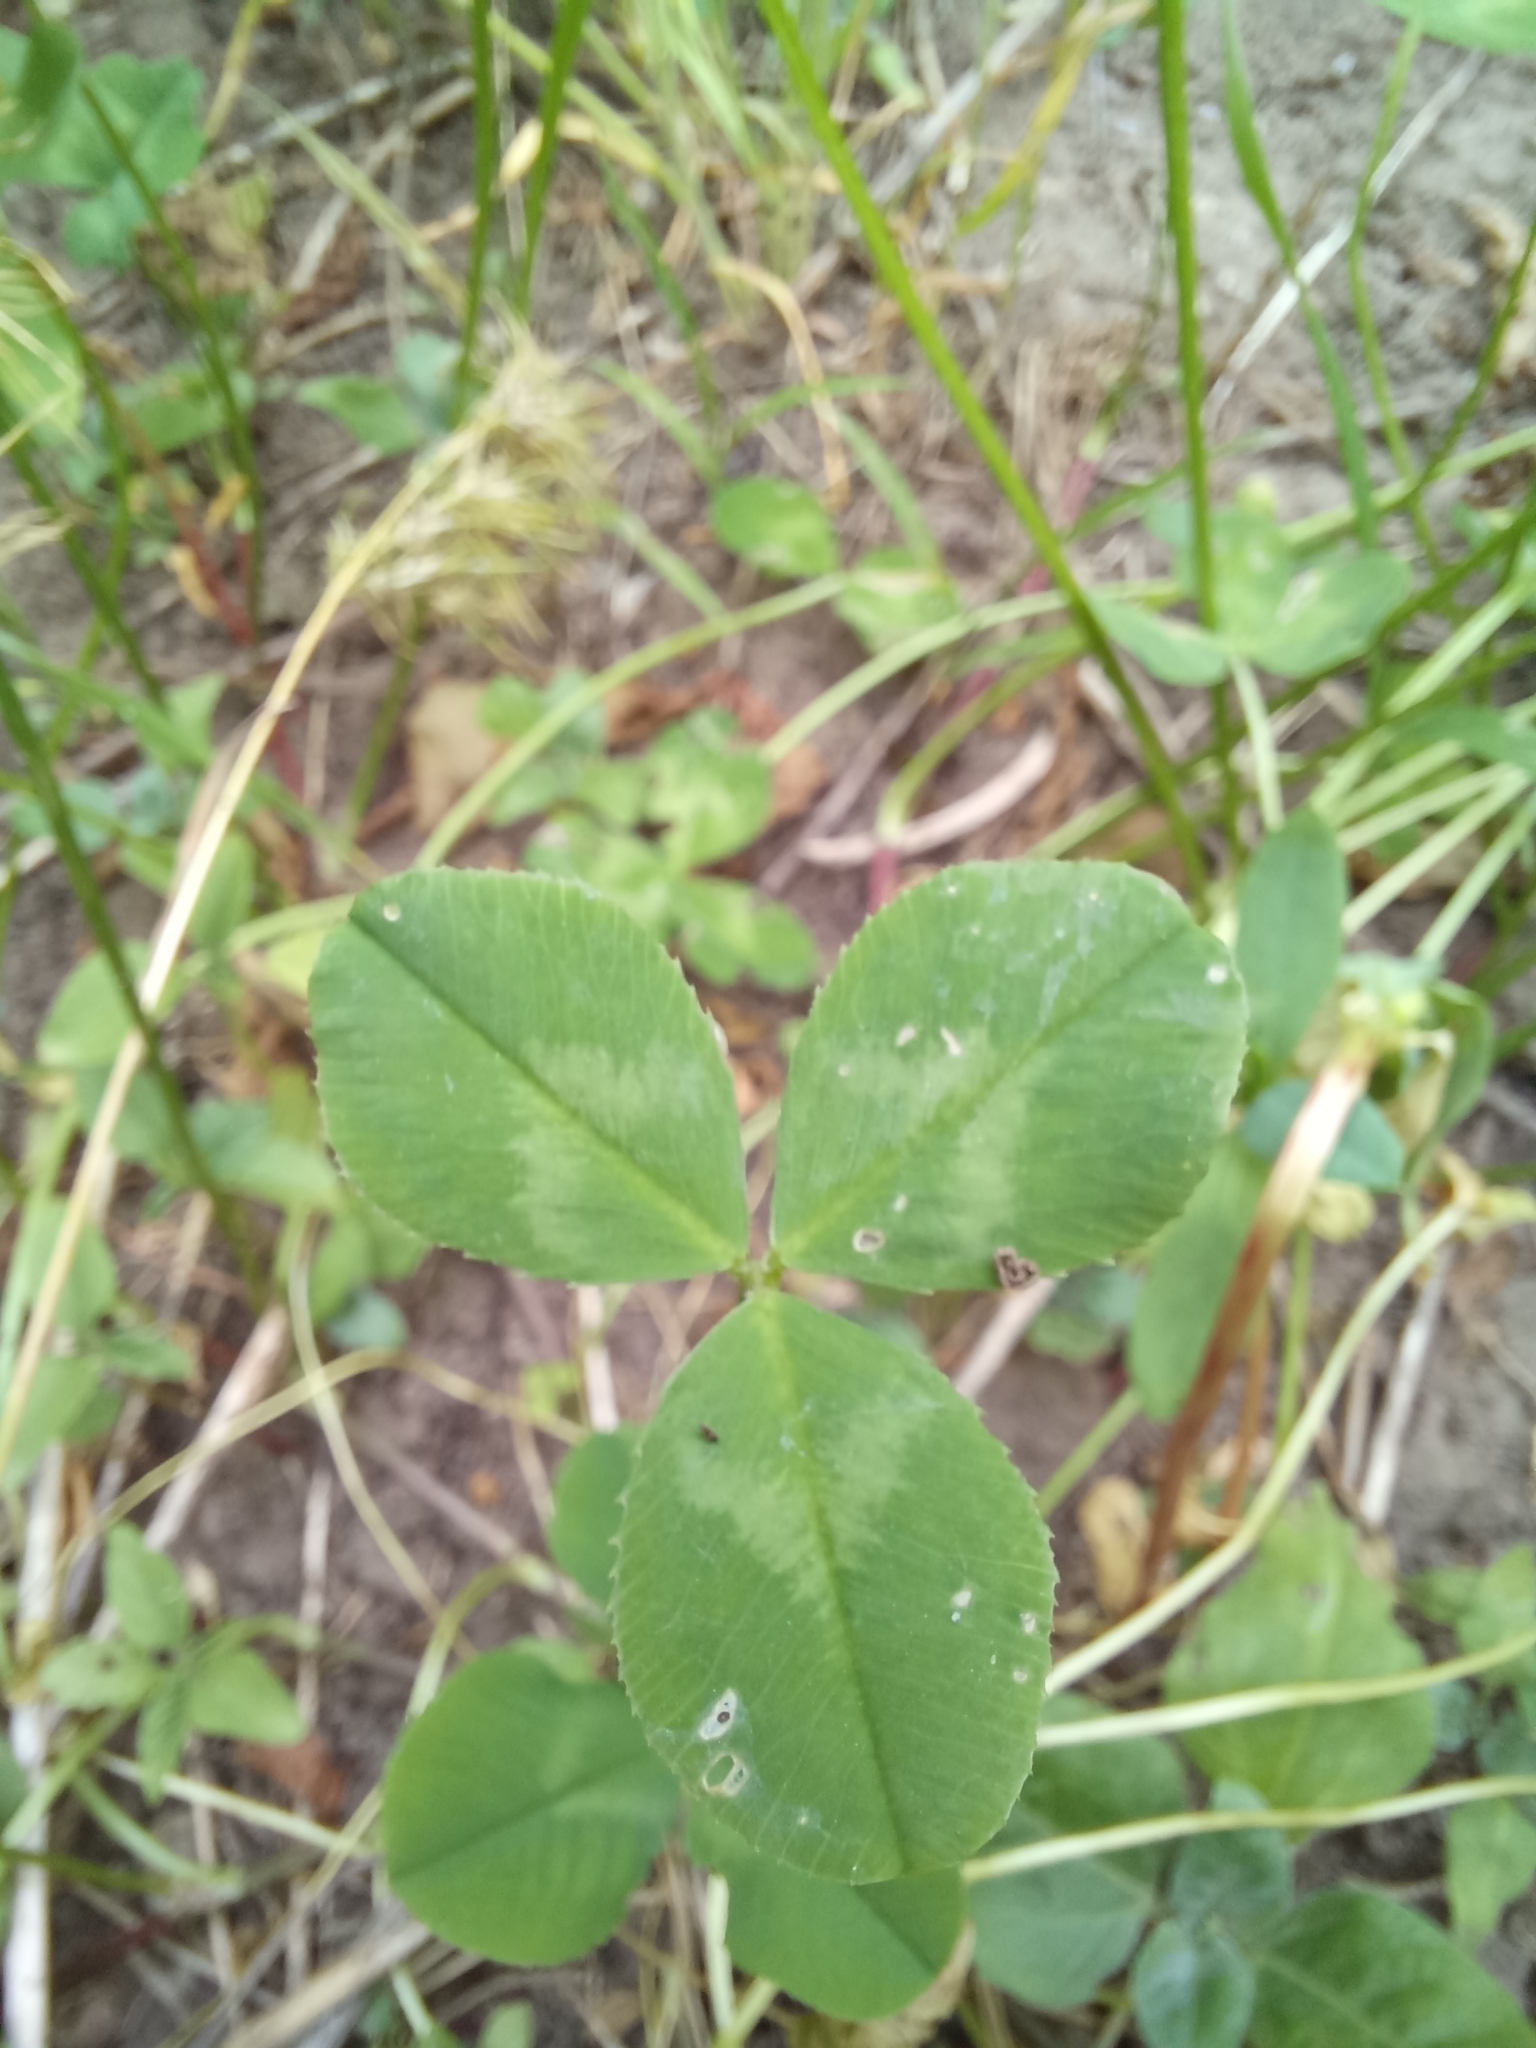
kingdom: Plantae
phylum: Tracheophyta
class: Magnoliopsida
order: Fabales
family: Fabaceae
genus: Trifolium
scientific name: Trifolium repens
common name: White clover
